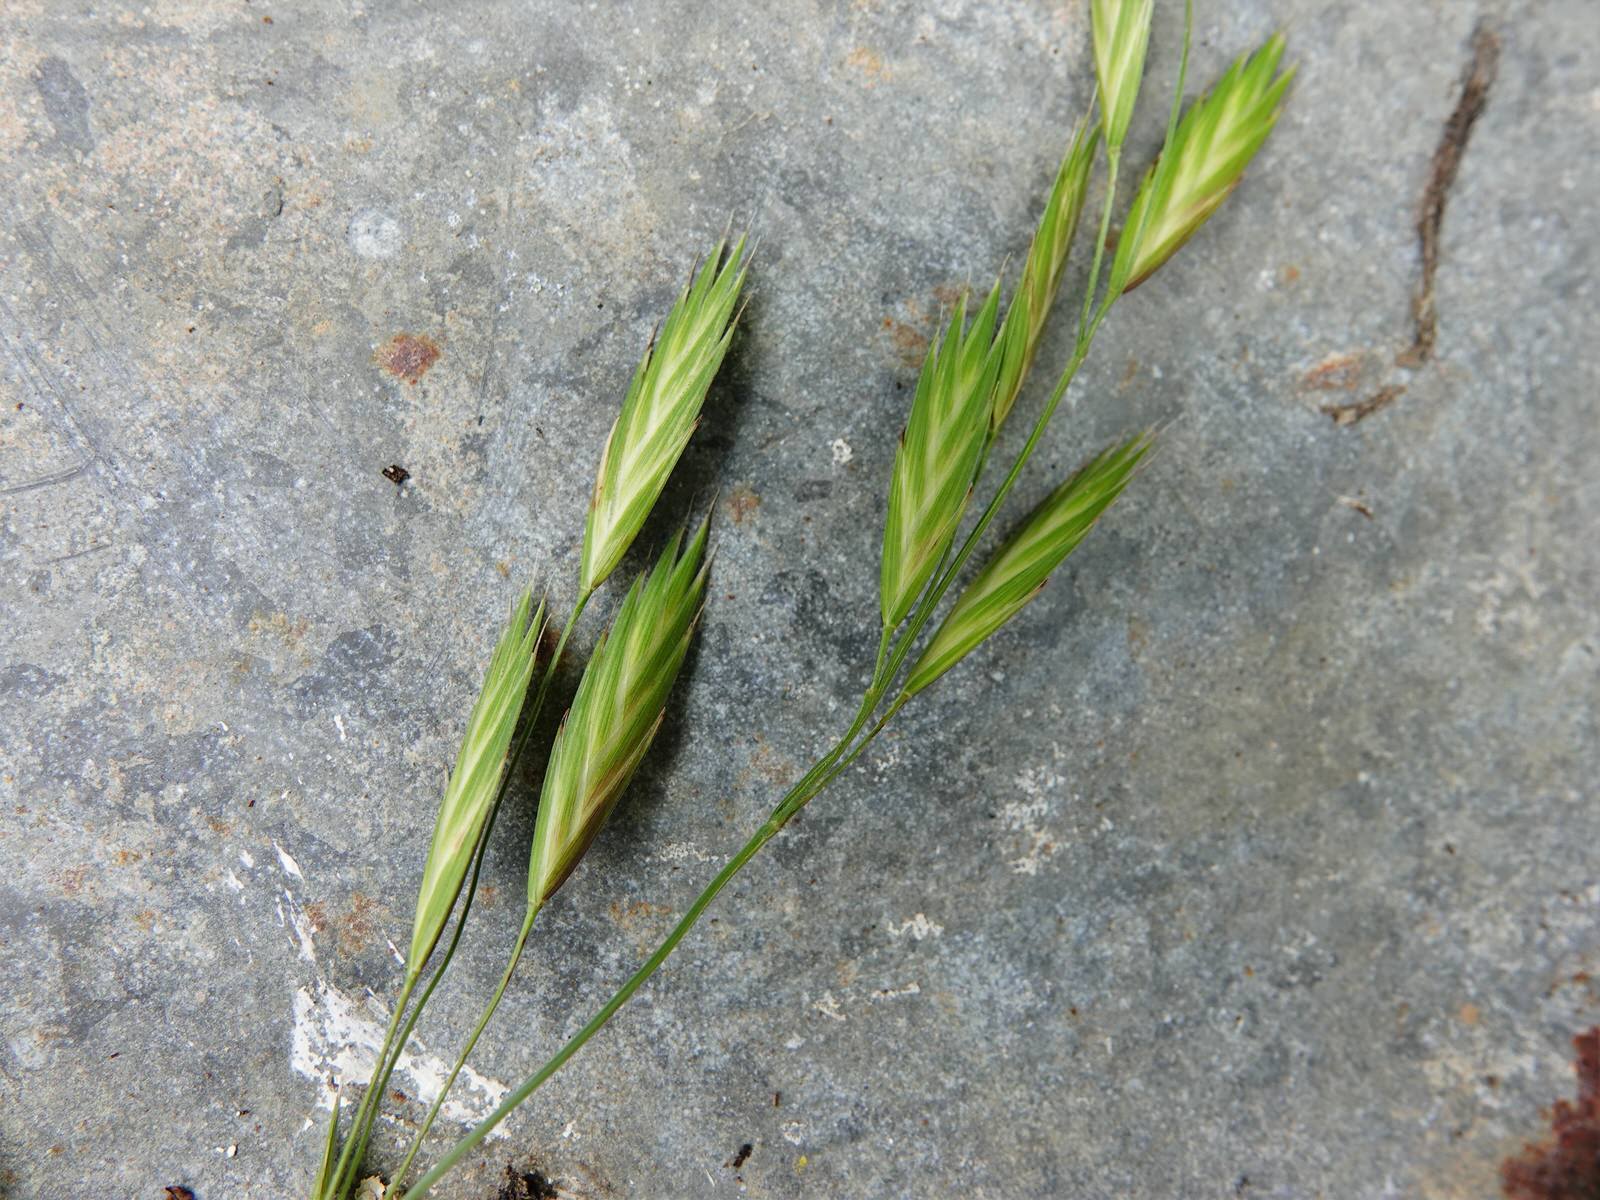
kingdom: Plantae
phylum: Tracheophyta
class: Liliopsida
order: Poales
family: Poaceae
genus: Bromus
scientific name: Bromus catharticus
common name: Rescuegrass
